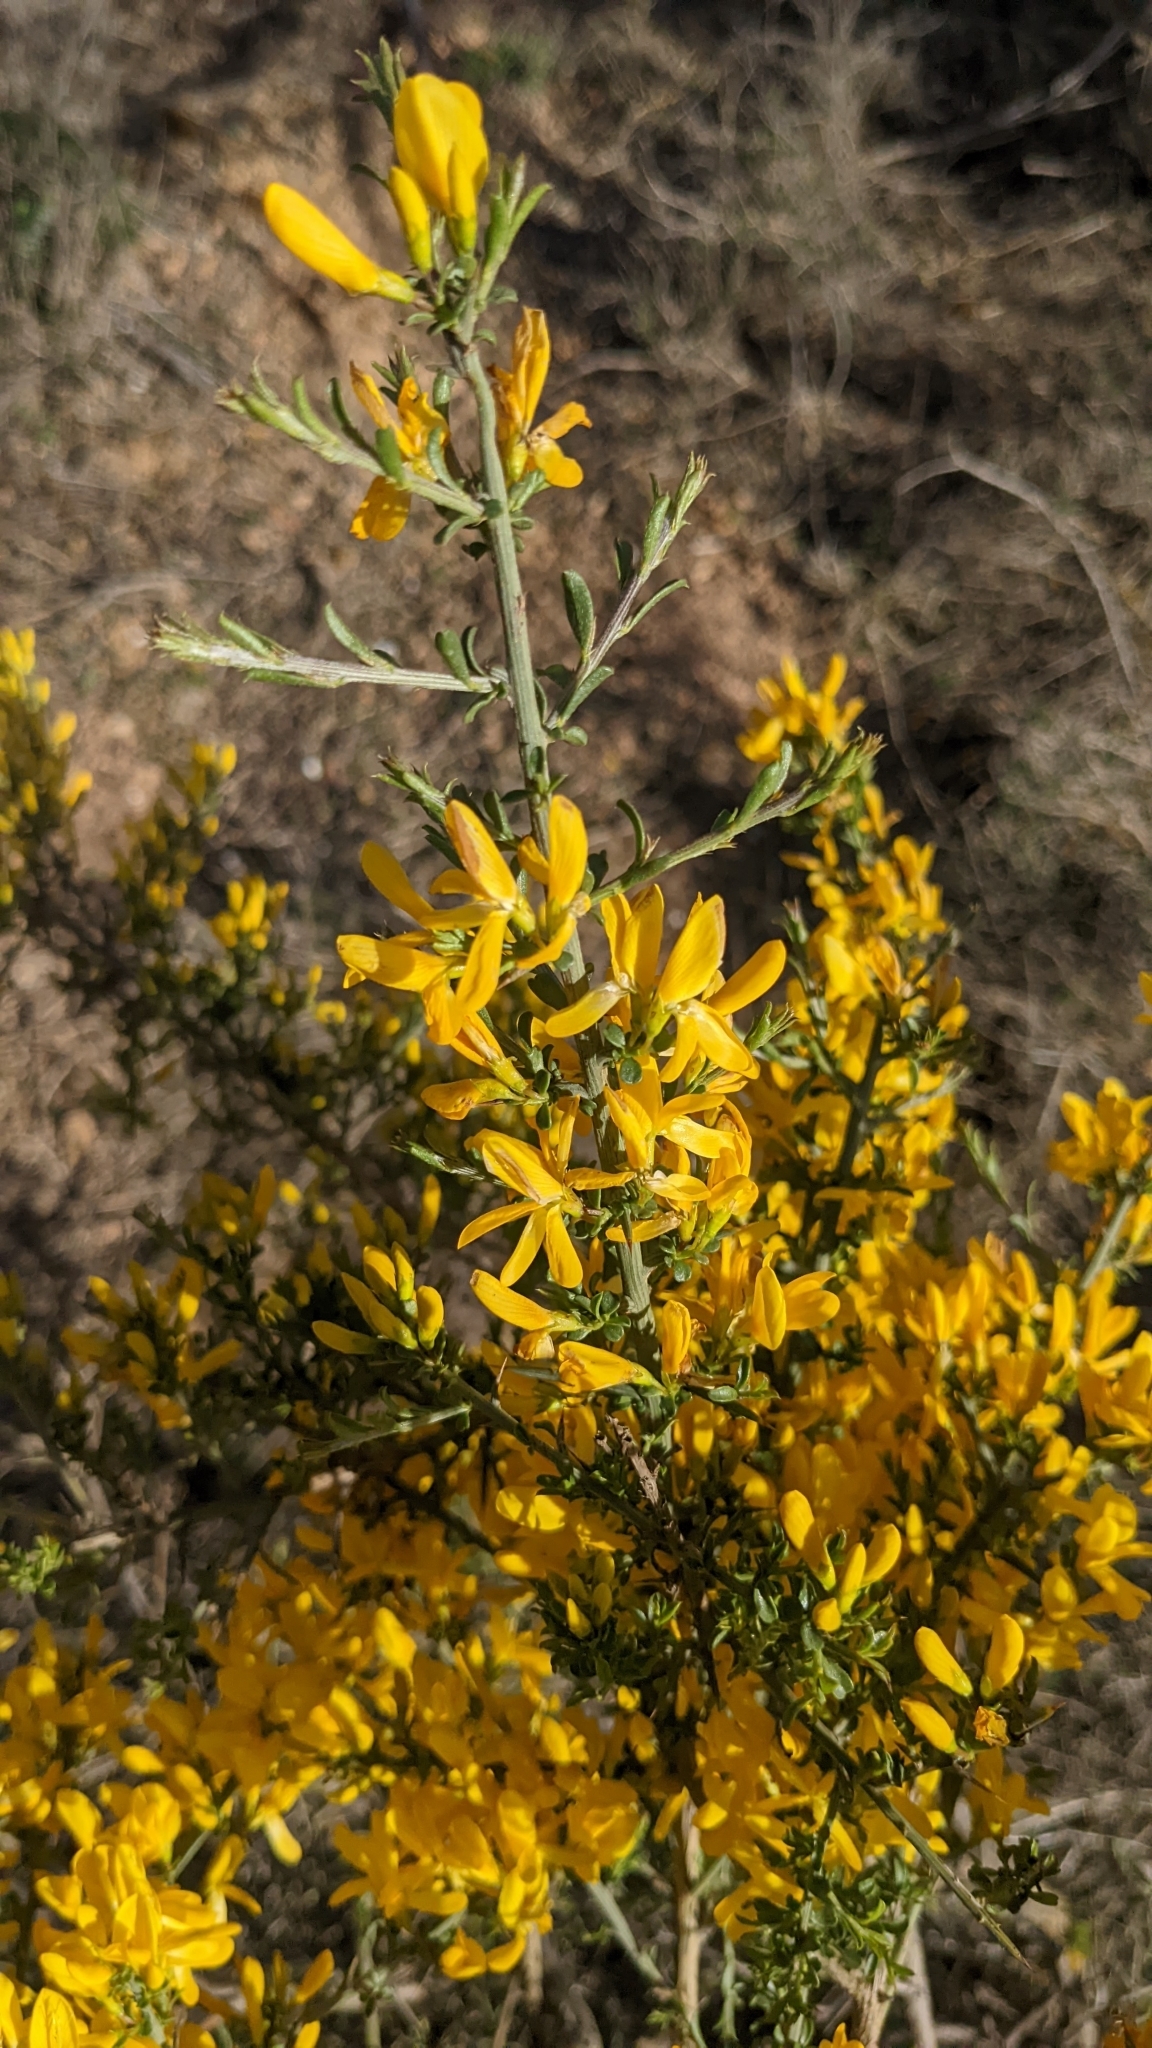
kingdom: Plantae
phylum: Tracheophyta
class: Magnoliopsida
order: Fabales
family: Fabaceae
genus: Genista
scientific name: Genista scorpius
